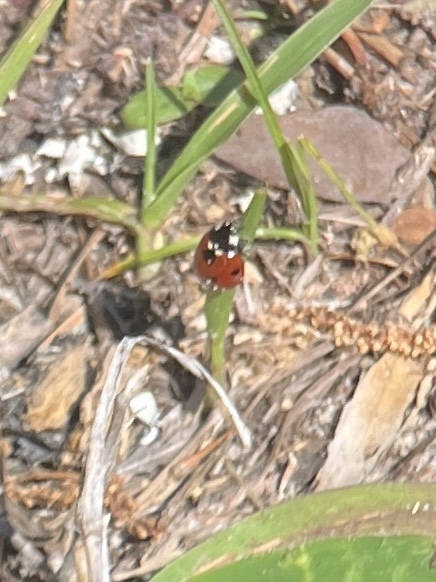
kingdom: Animalia
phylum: Arthropoda
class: Insecta
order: Coleoptera
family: Coccinellidae
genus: Coccinella
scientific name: Coccinella septempunctata
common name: Sevenspotted lady beetle
